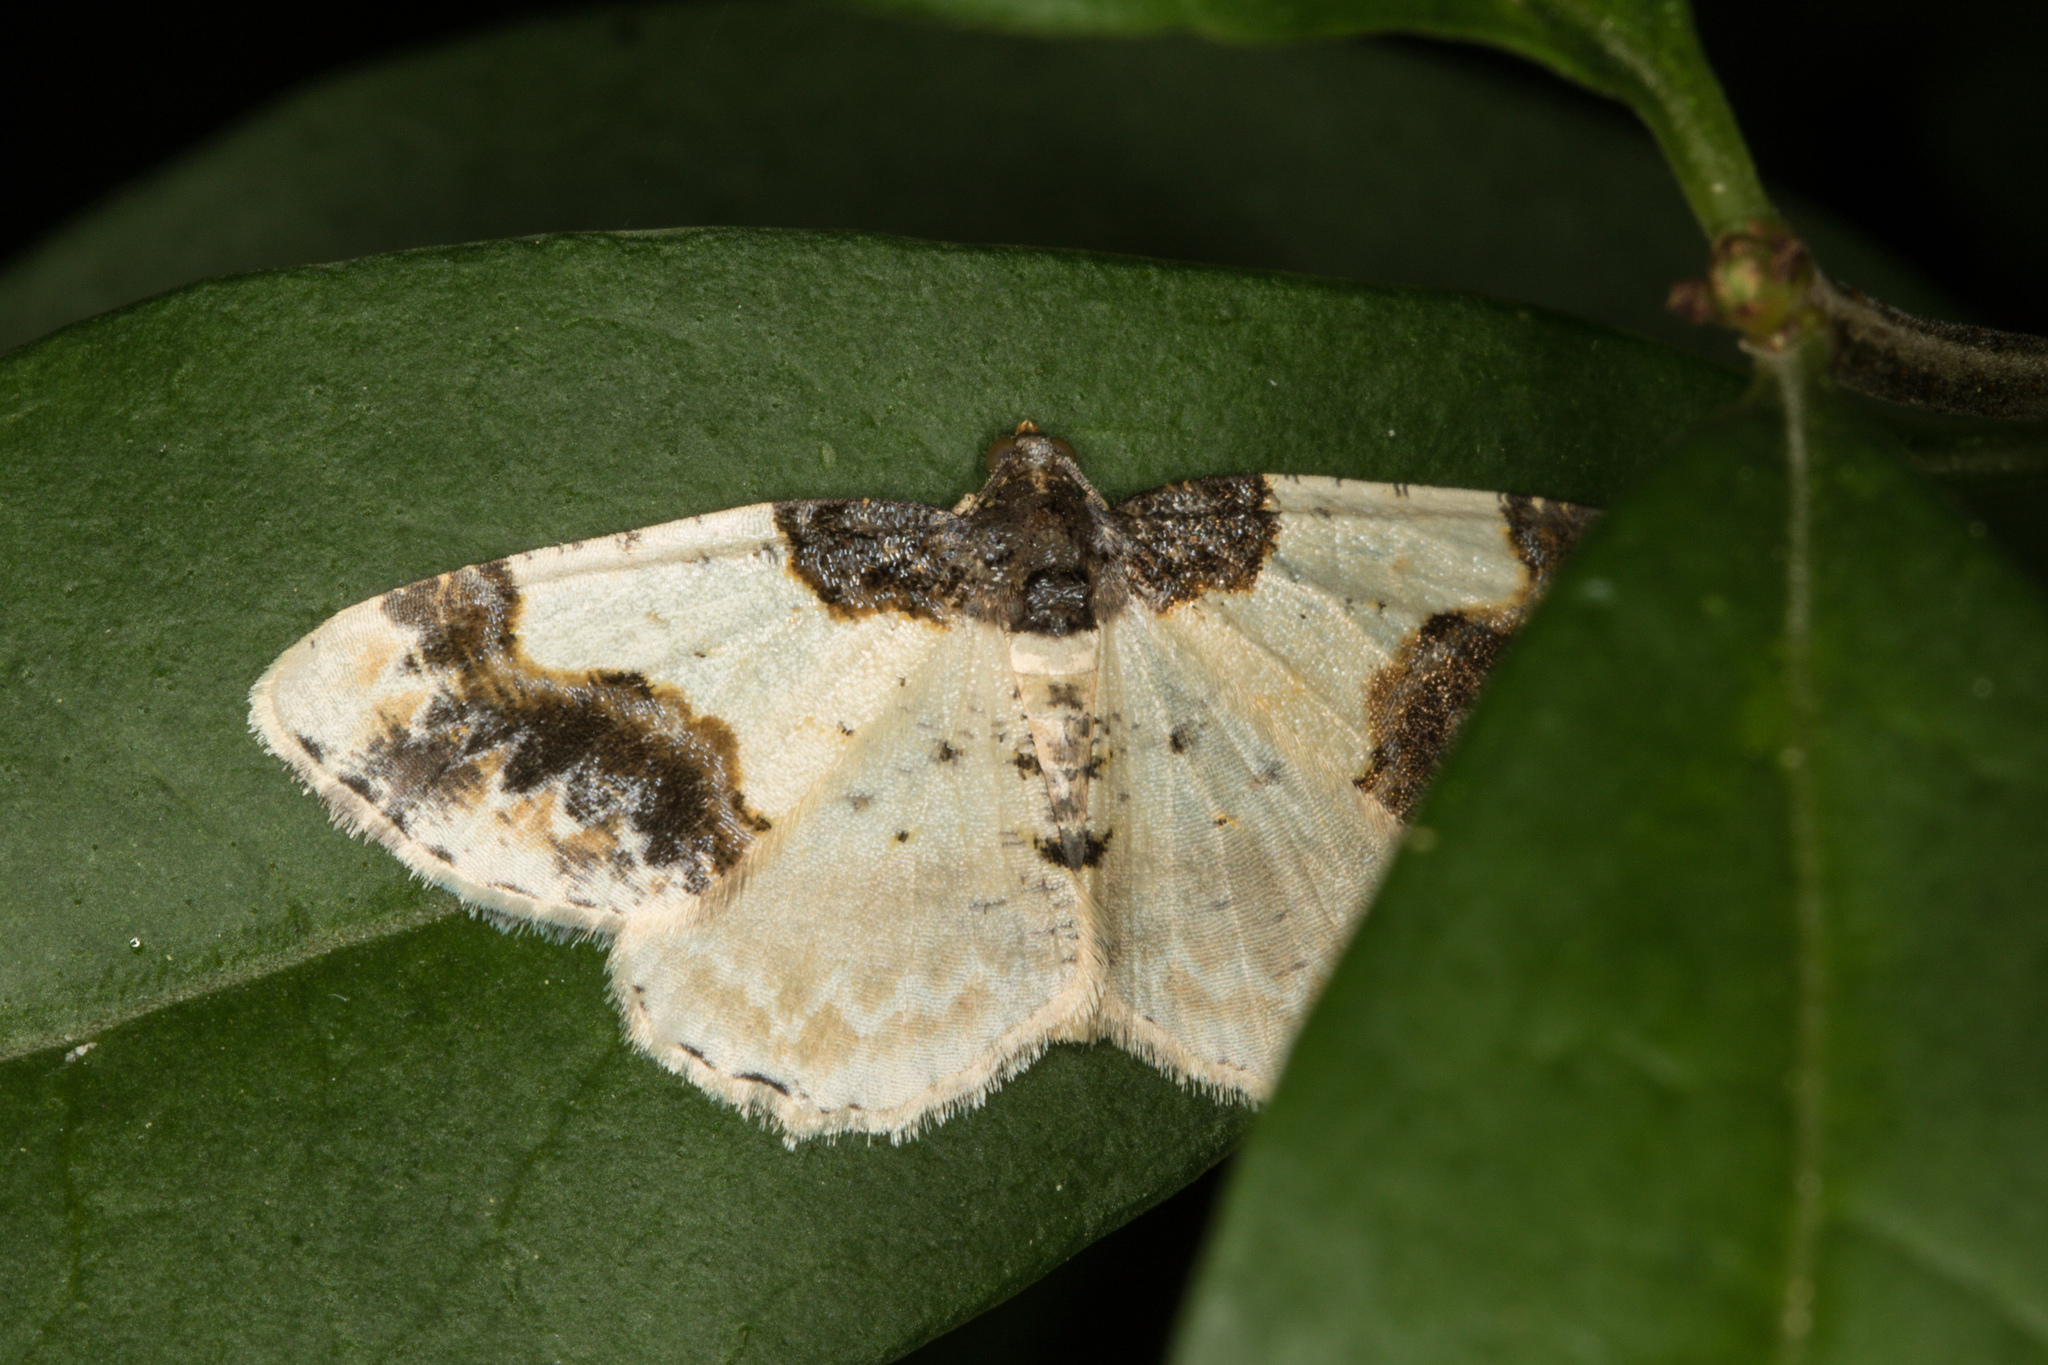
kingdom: Animalia
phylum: Arthropoda
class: Insecta
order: Lepidoptera
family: Geometridae
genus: Ligdia
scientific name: Ligdia adustata
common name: Scorched carpet
